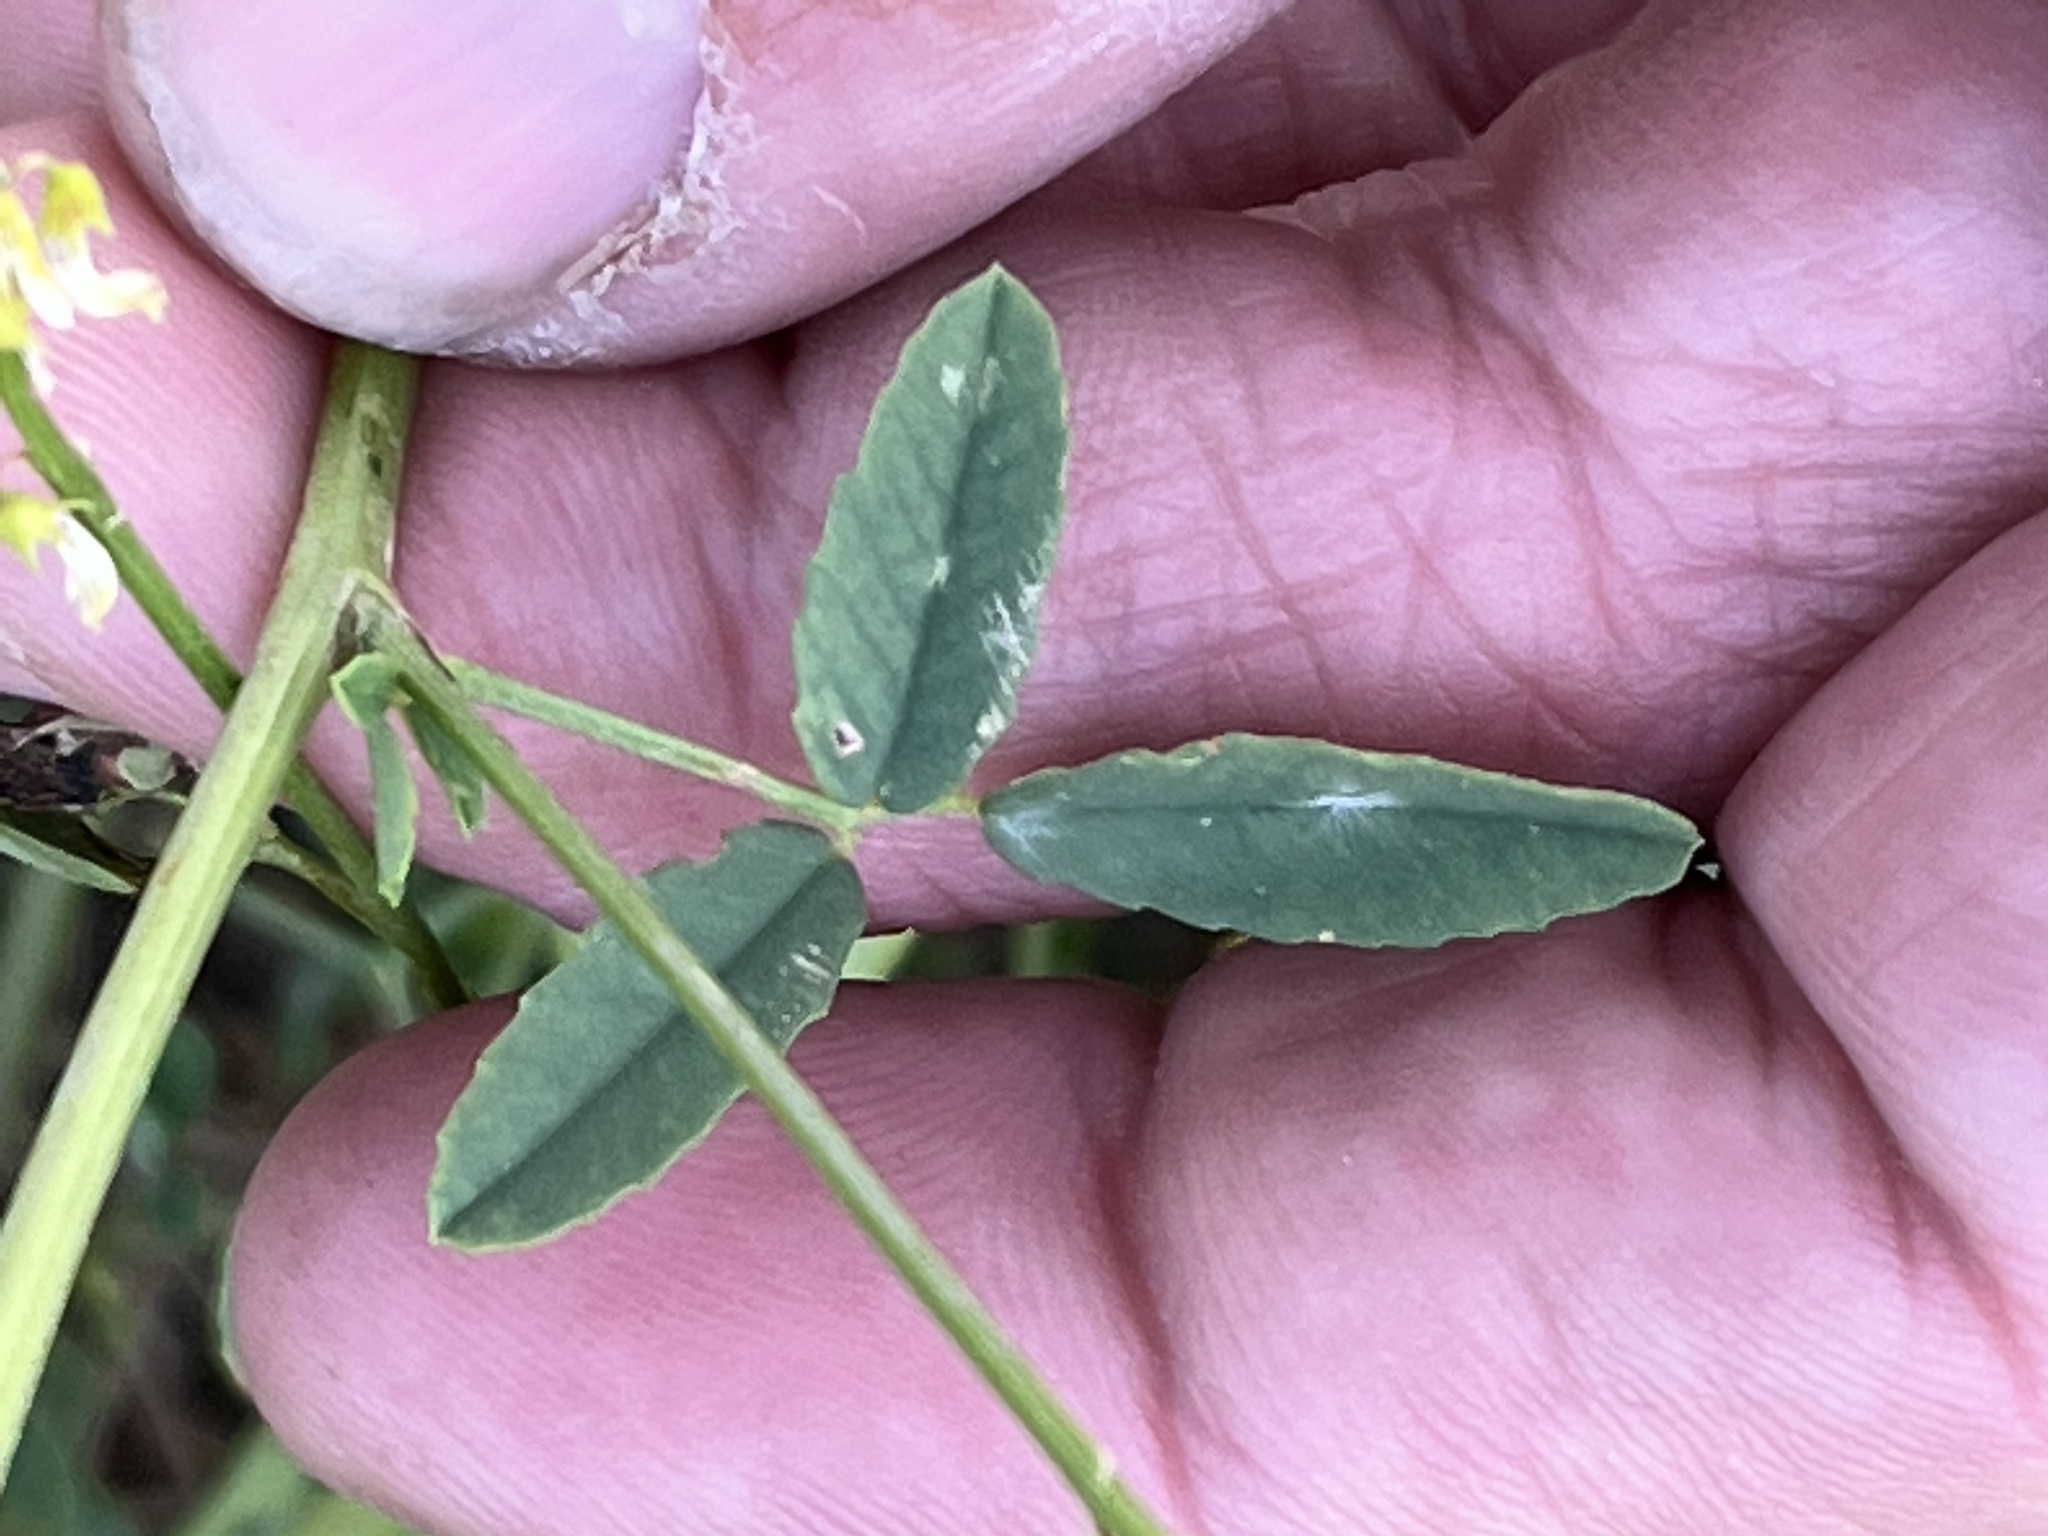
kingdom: Plantae
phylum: Tracheophyta
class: Magnoliopsida
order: Fabales
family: Fabaceae
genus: Melilotus
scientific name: Melilotus officinalis
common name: Sweetclover
